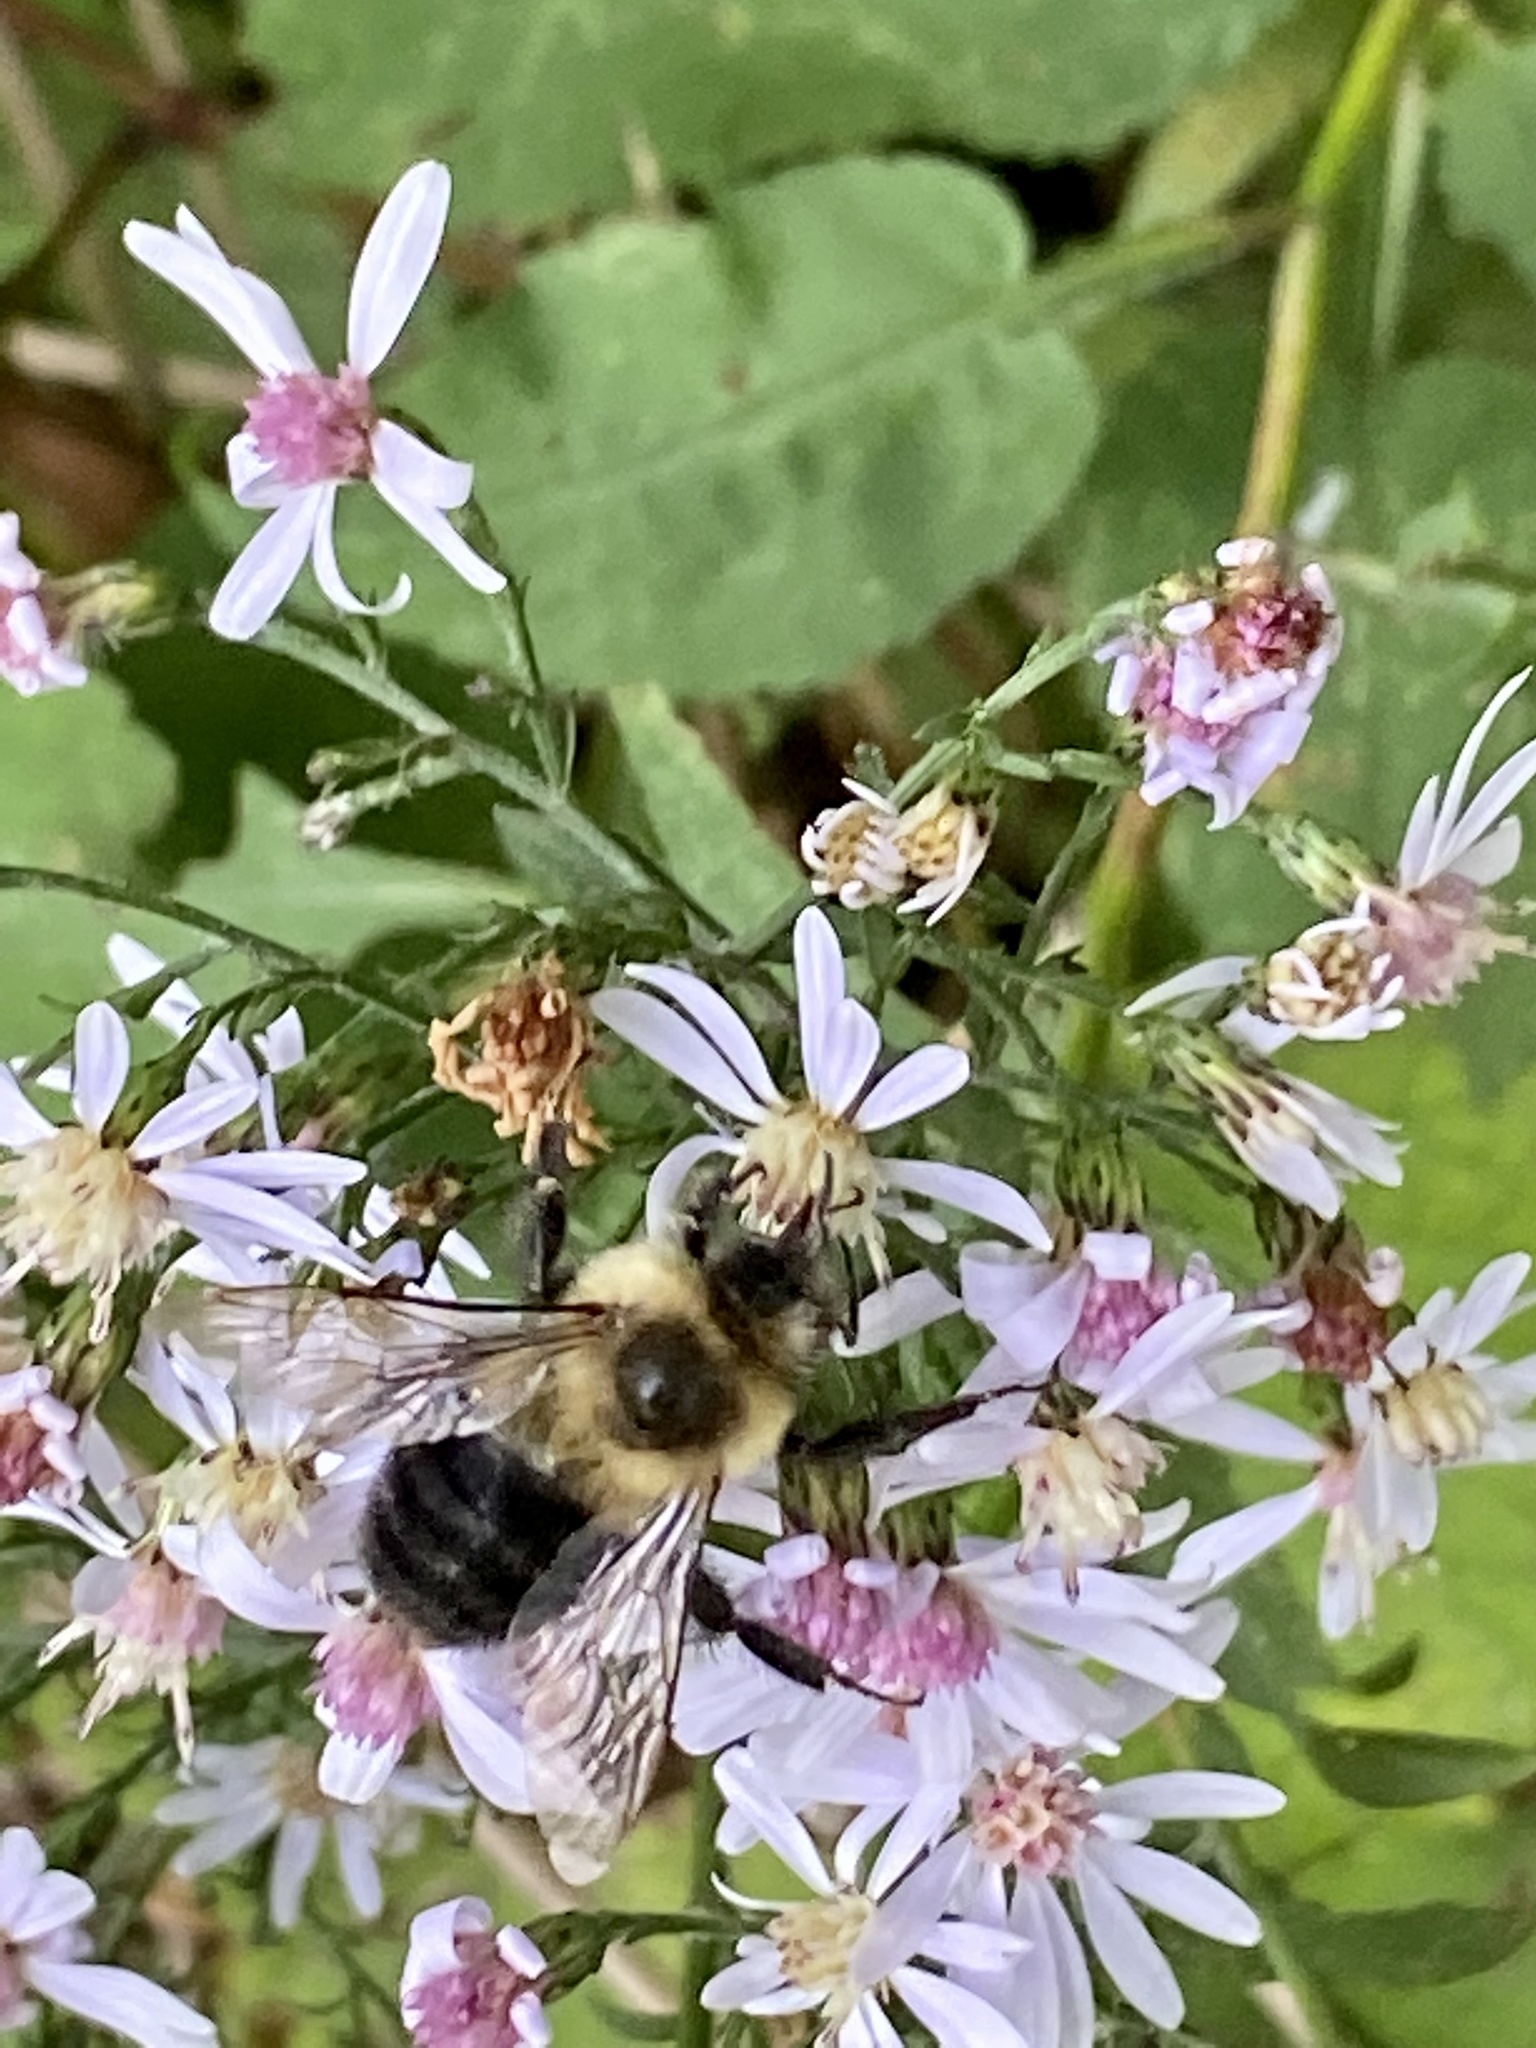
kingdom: Animalia
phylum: Arthropoda
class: Insecta
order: Hymenoptera
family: Apidae
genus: Bombus
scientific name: Bombus impatiens
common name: Common eastern bumble bee
